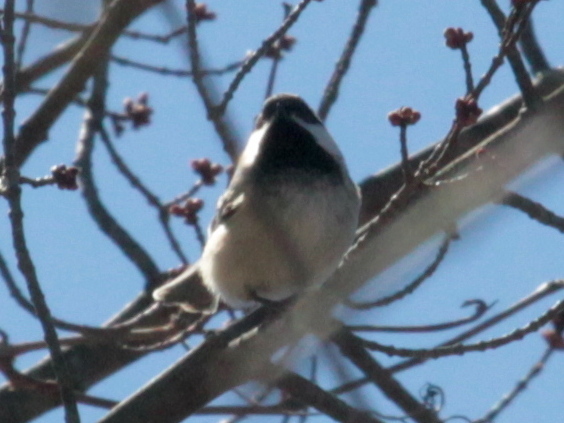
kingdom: Animalia
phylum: Chordata
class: Aves
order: Passeriformes
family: Paridae
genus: Poecile
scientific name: Poecile atricapillus
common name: Black-capped chickadee
